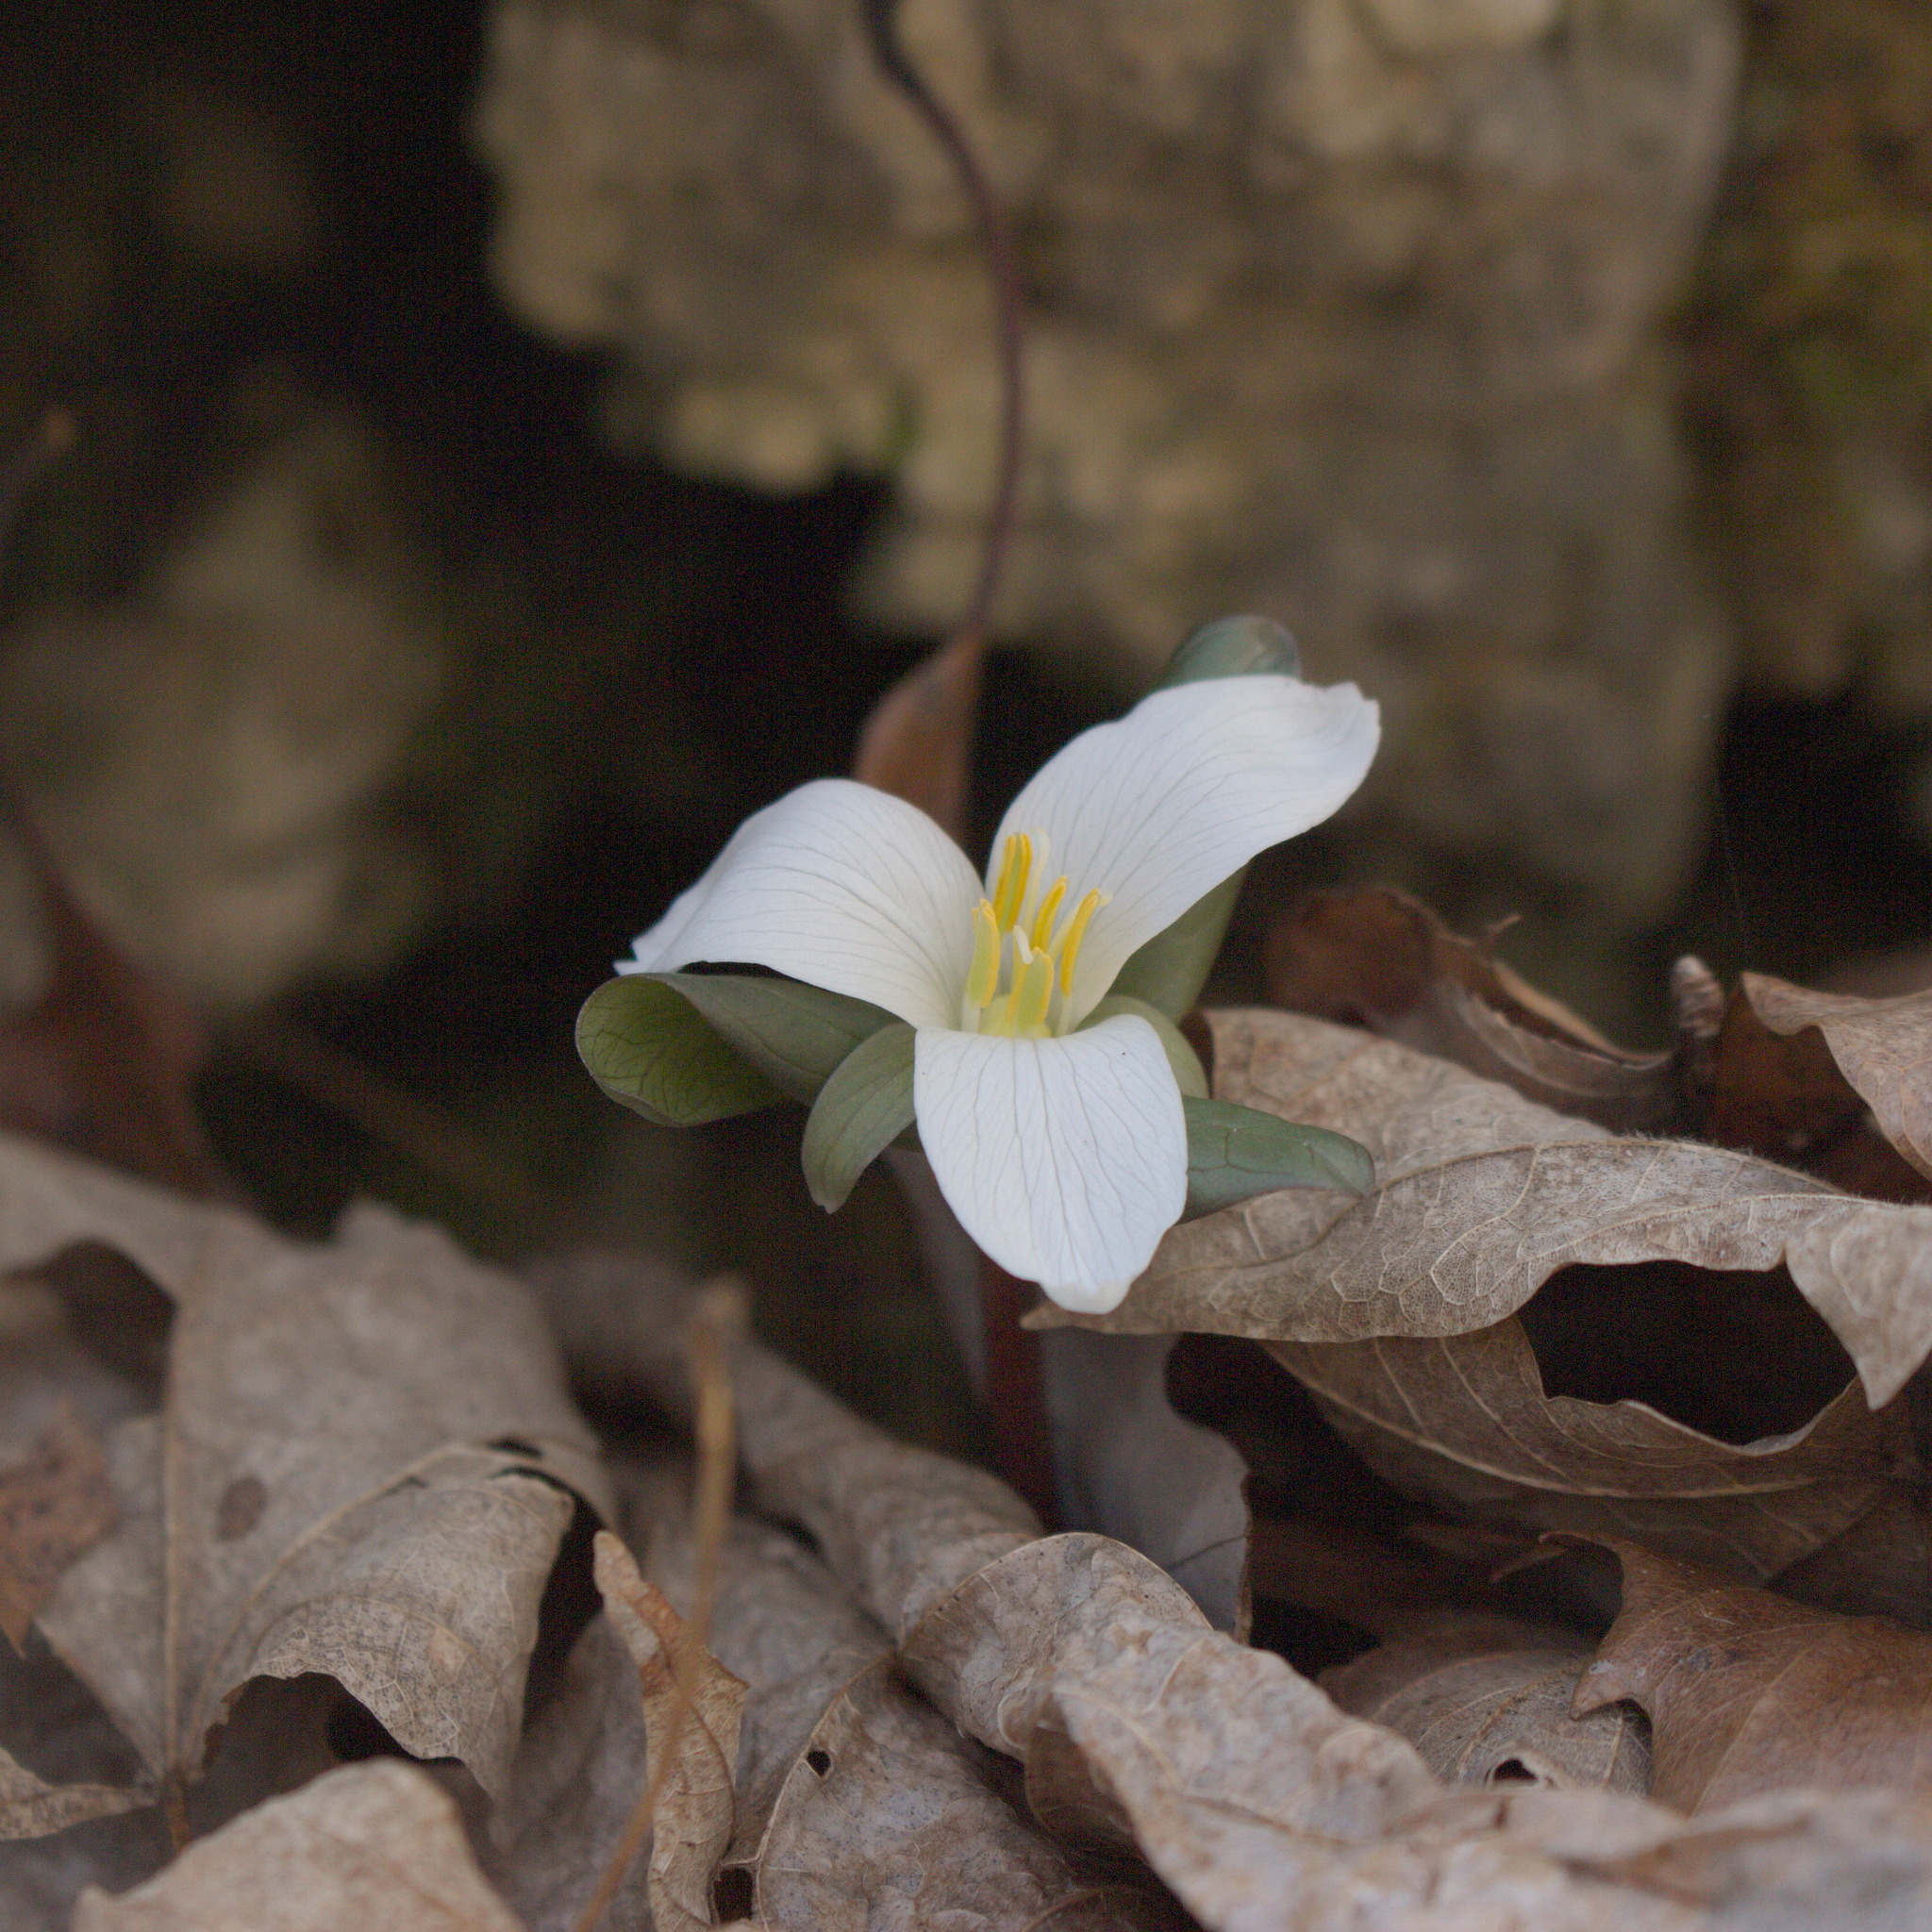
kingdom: Plantae
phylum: Tracheophyta
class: Liliopsida
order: Liliales
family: Melanthiaceae
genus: Trillium
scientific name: Trillium nivale
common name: Dwarf white trillium
